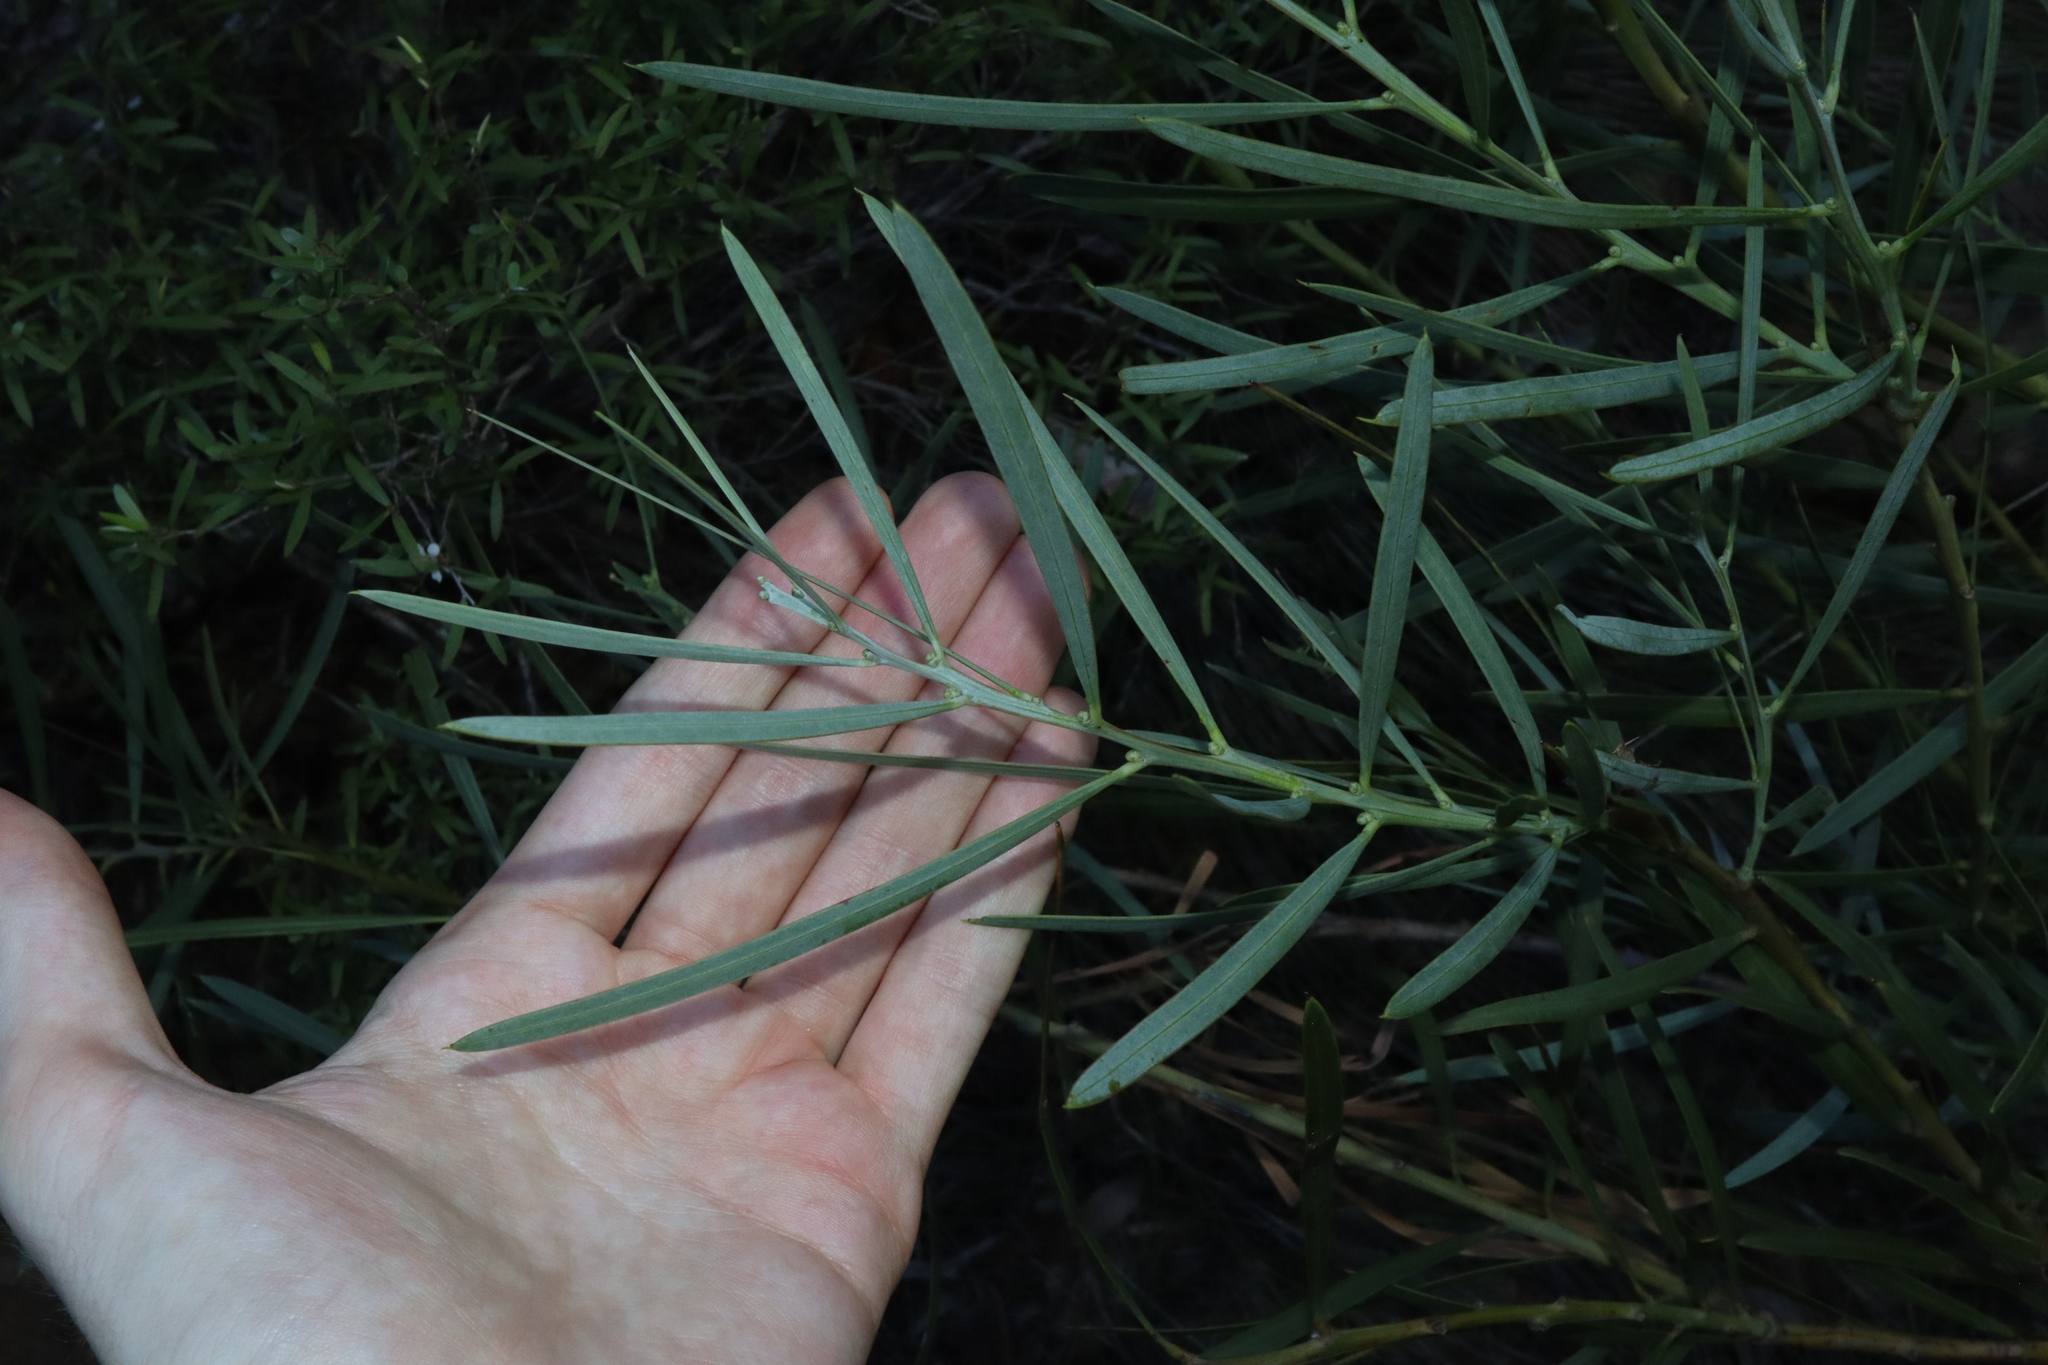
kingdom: Plantae
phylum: Tracheophyta
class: Magnoliopsida
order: Fabales
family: Fabaceae
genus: Acacia
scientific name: Acacia suaveolens
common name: Sweet acacia
